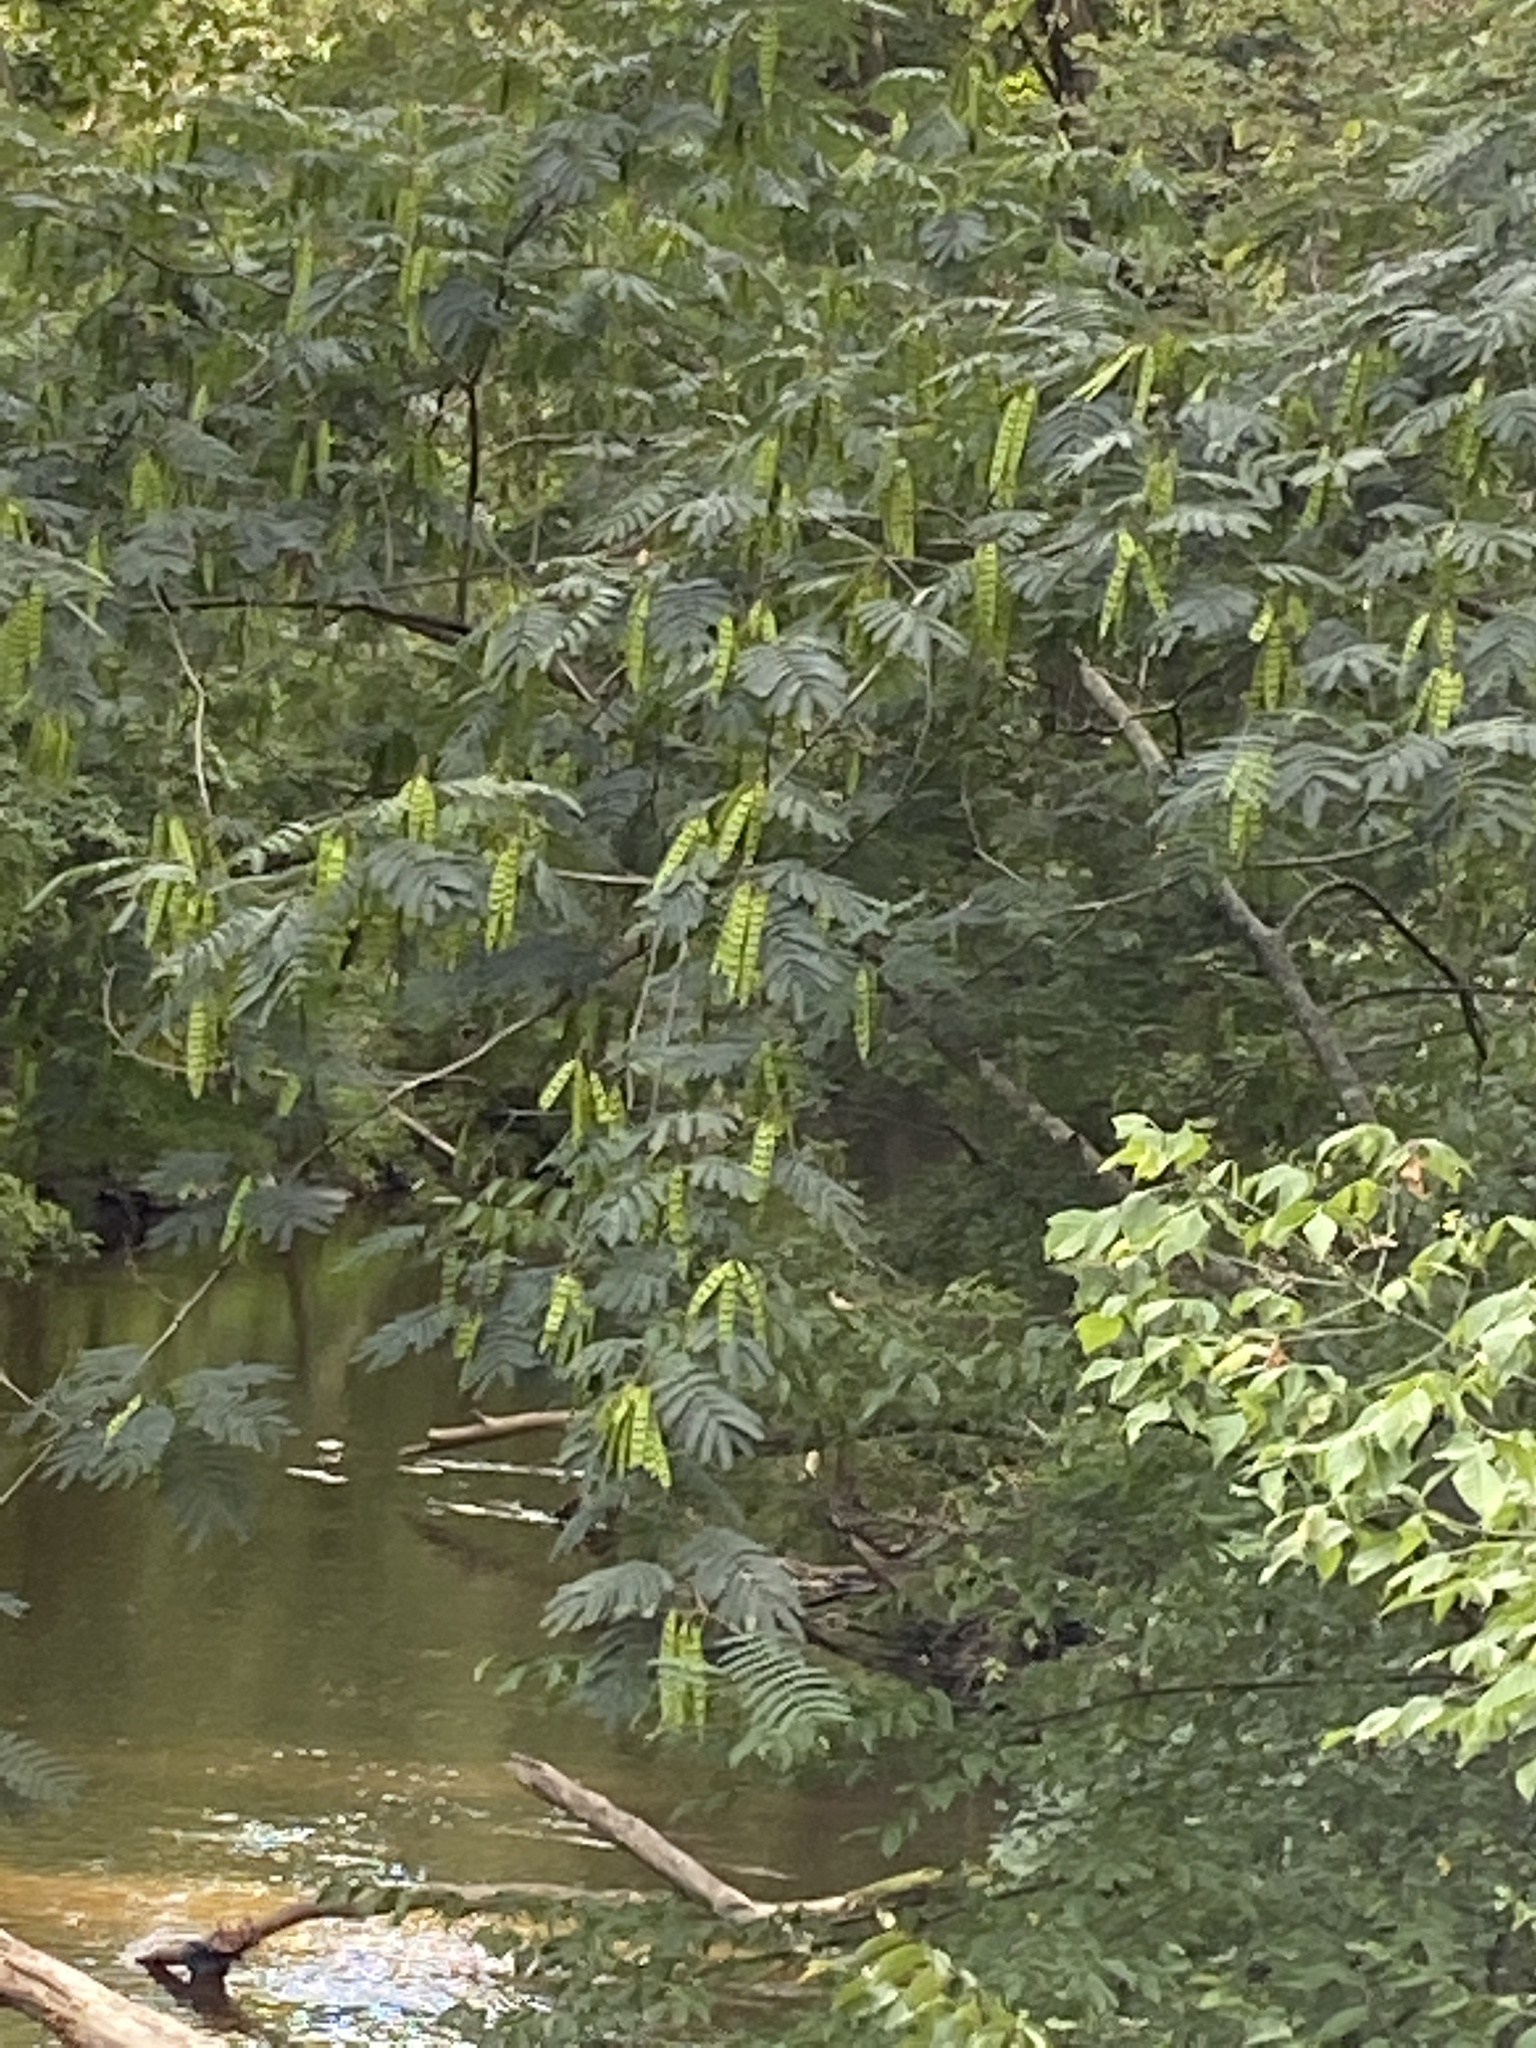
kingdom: Plantae
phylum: Tracheophyta
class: Magnoliopsida
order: Fabales
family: Fabaceae
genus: Albizia
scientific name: Albizia julibrissin
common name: Silktree
